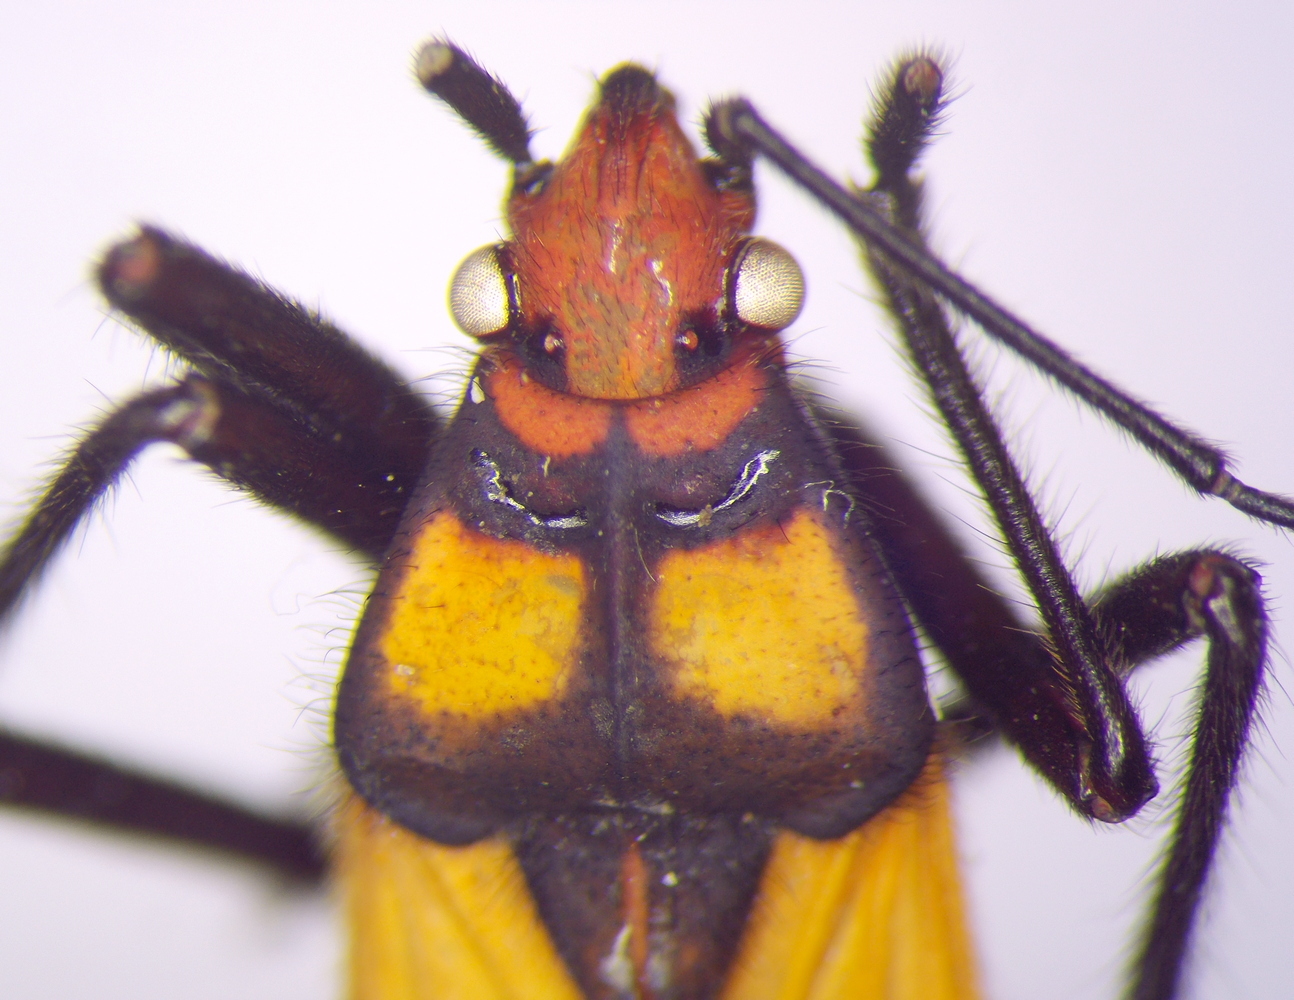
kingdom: Animalia
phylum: Arthropoda
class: Insecta
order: Hemiptera
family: Lygaeidae
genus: Oncopeltus
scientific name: Oncopeltus famelicus
